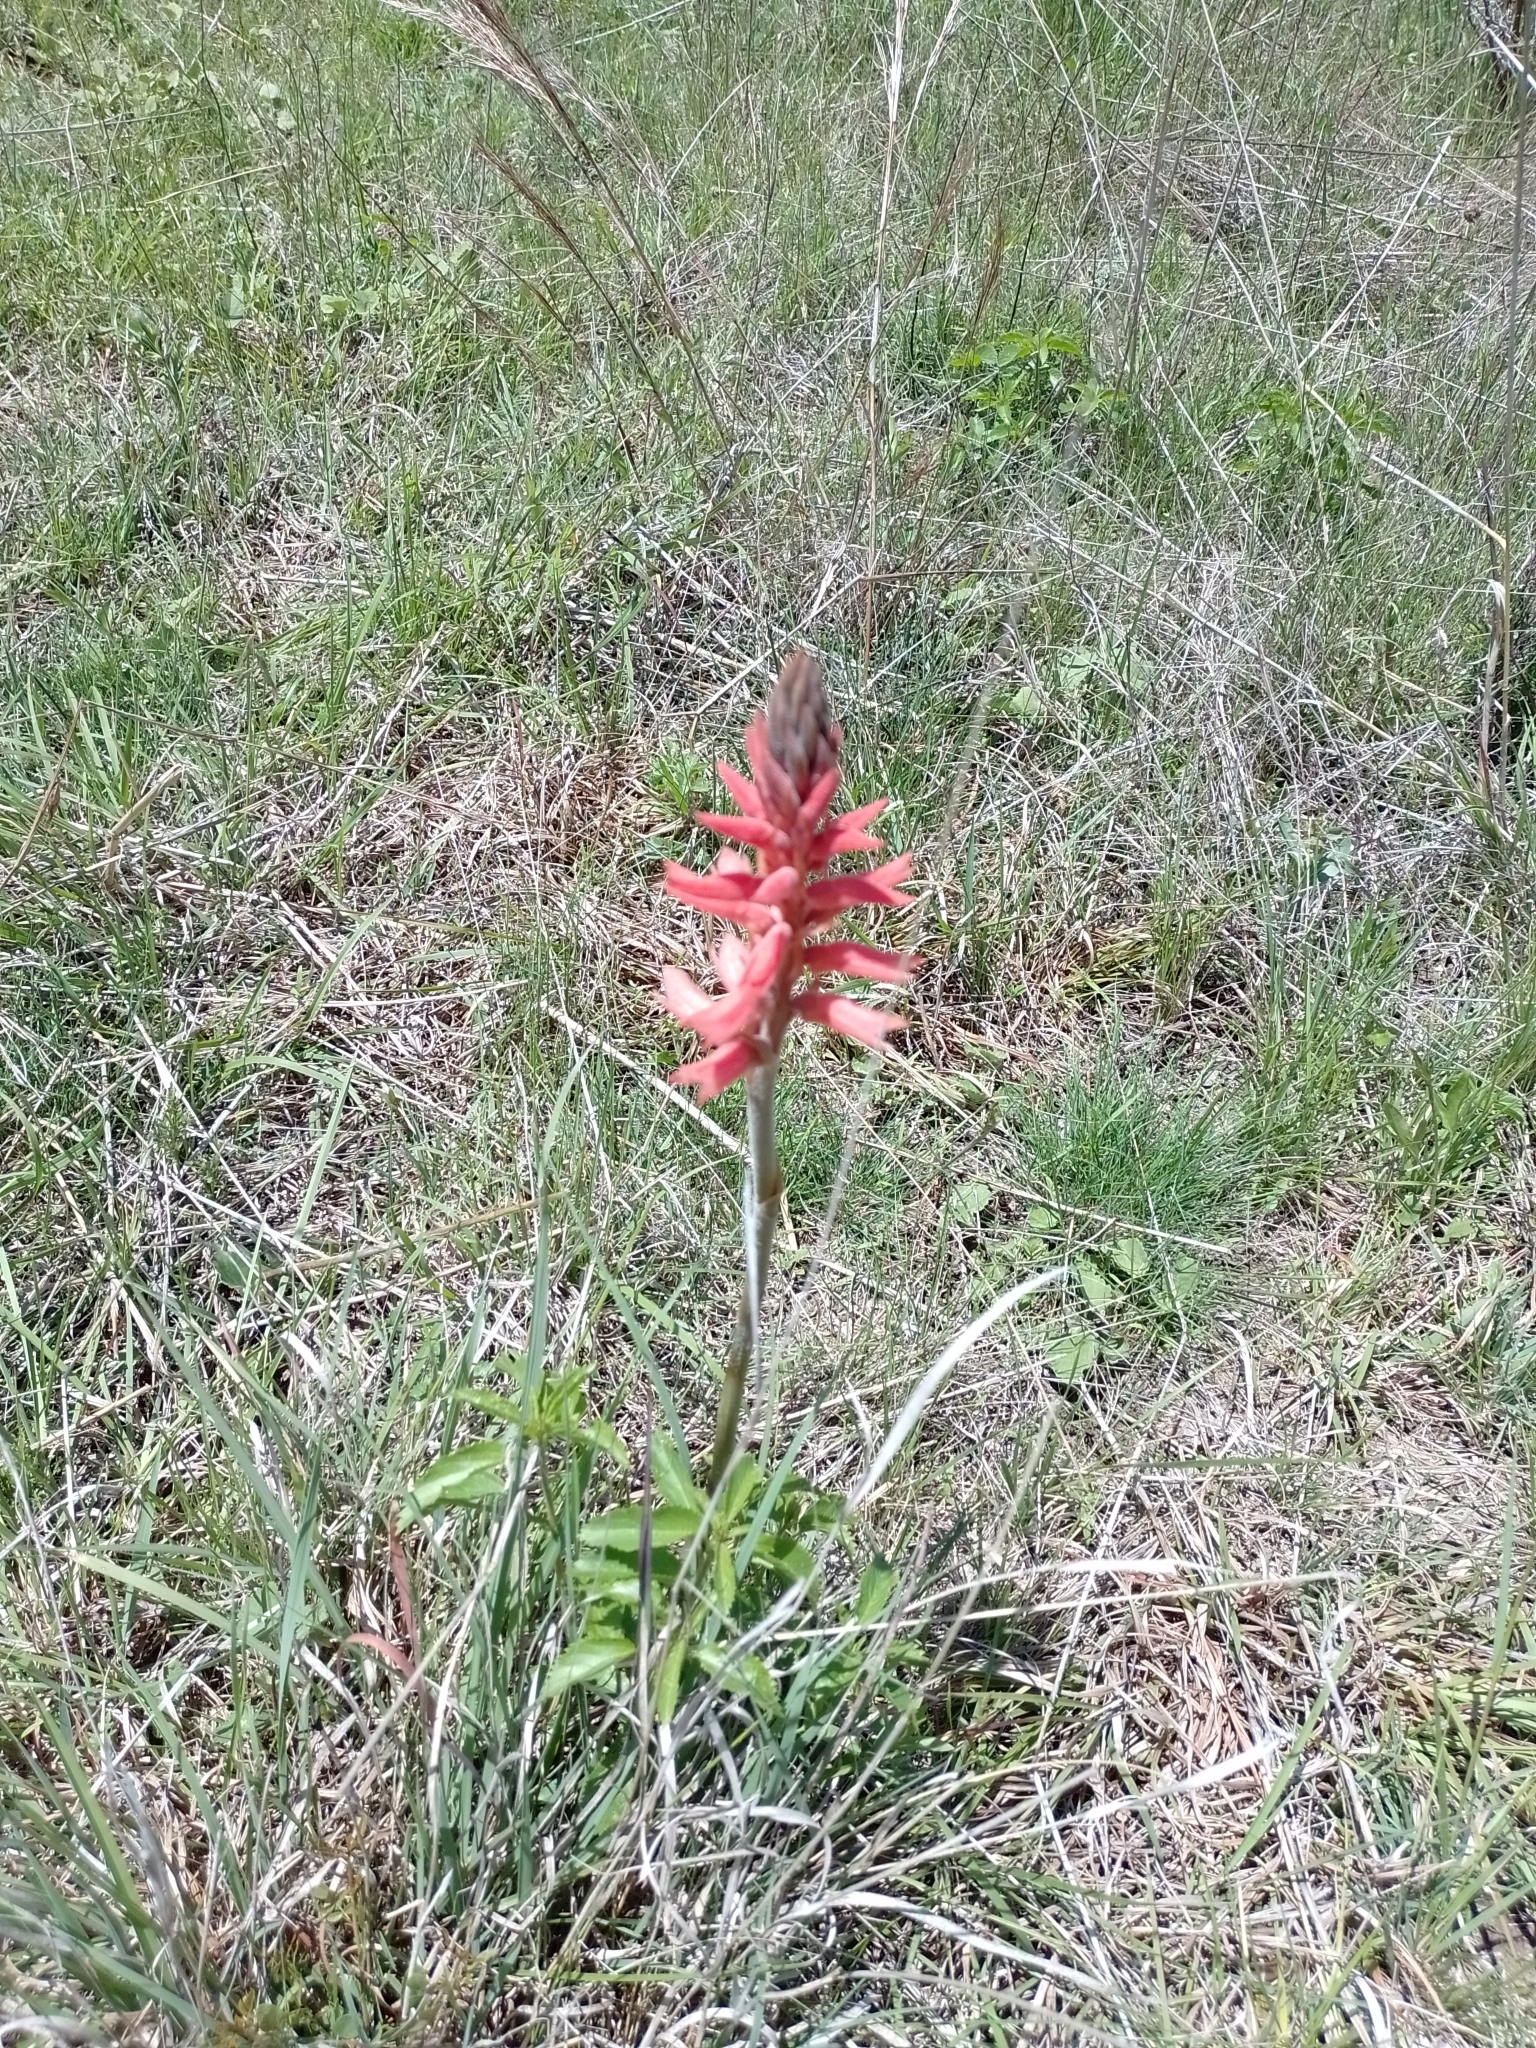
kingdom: Plantae
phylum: Tracheophyta
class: Liliopsida
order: Asparagales
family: Orchidaceae
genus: Sacoila
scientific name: Sacoila lanceolata
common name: Leafless beaked ladiestresses
